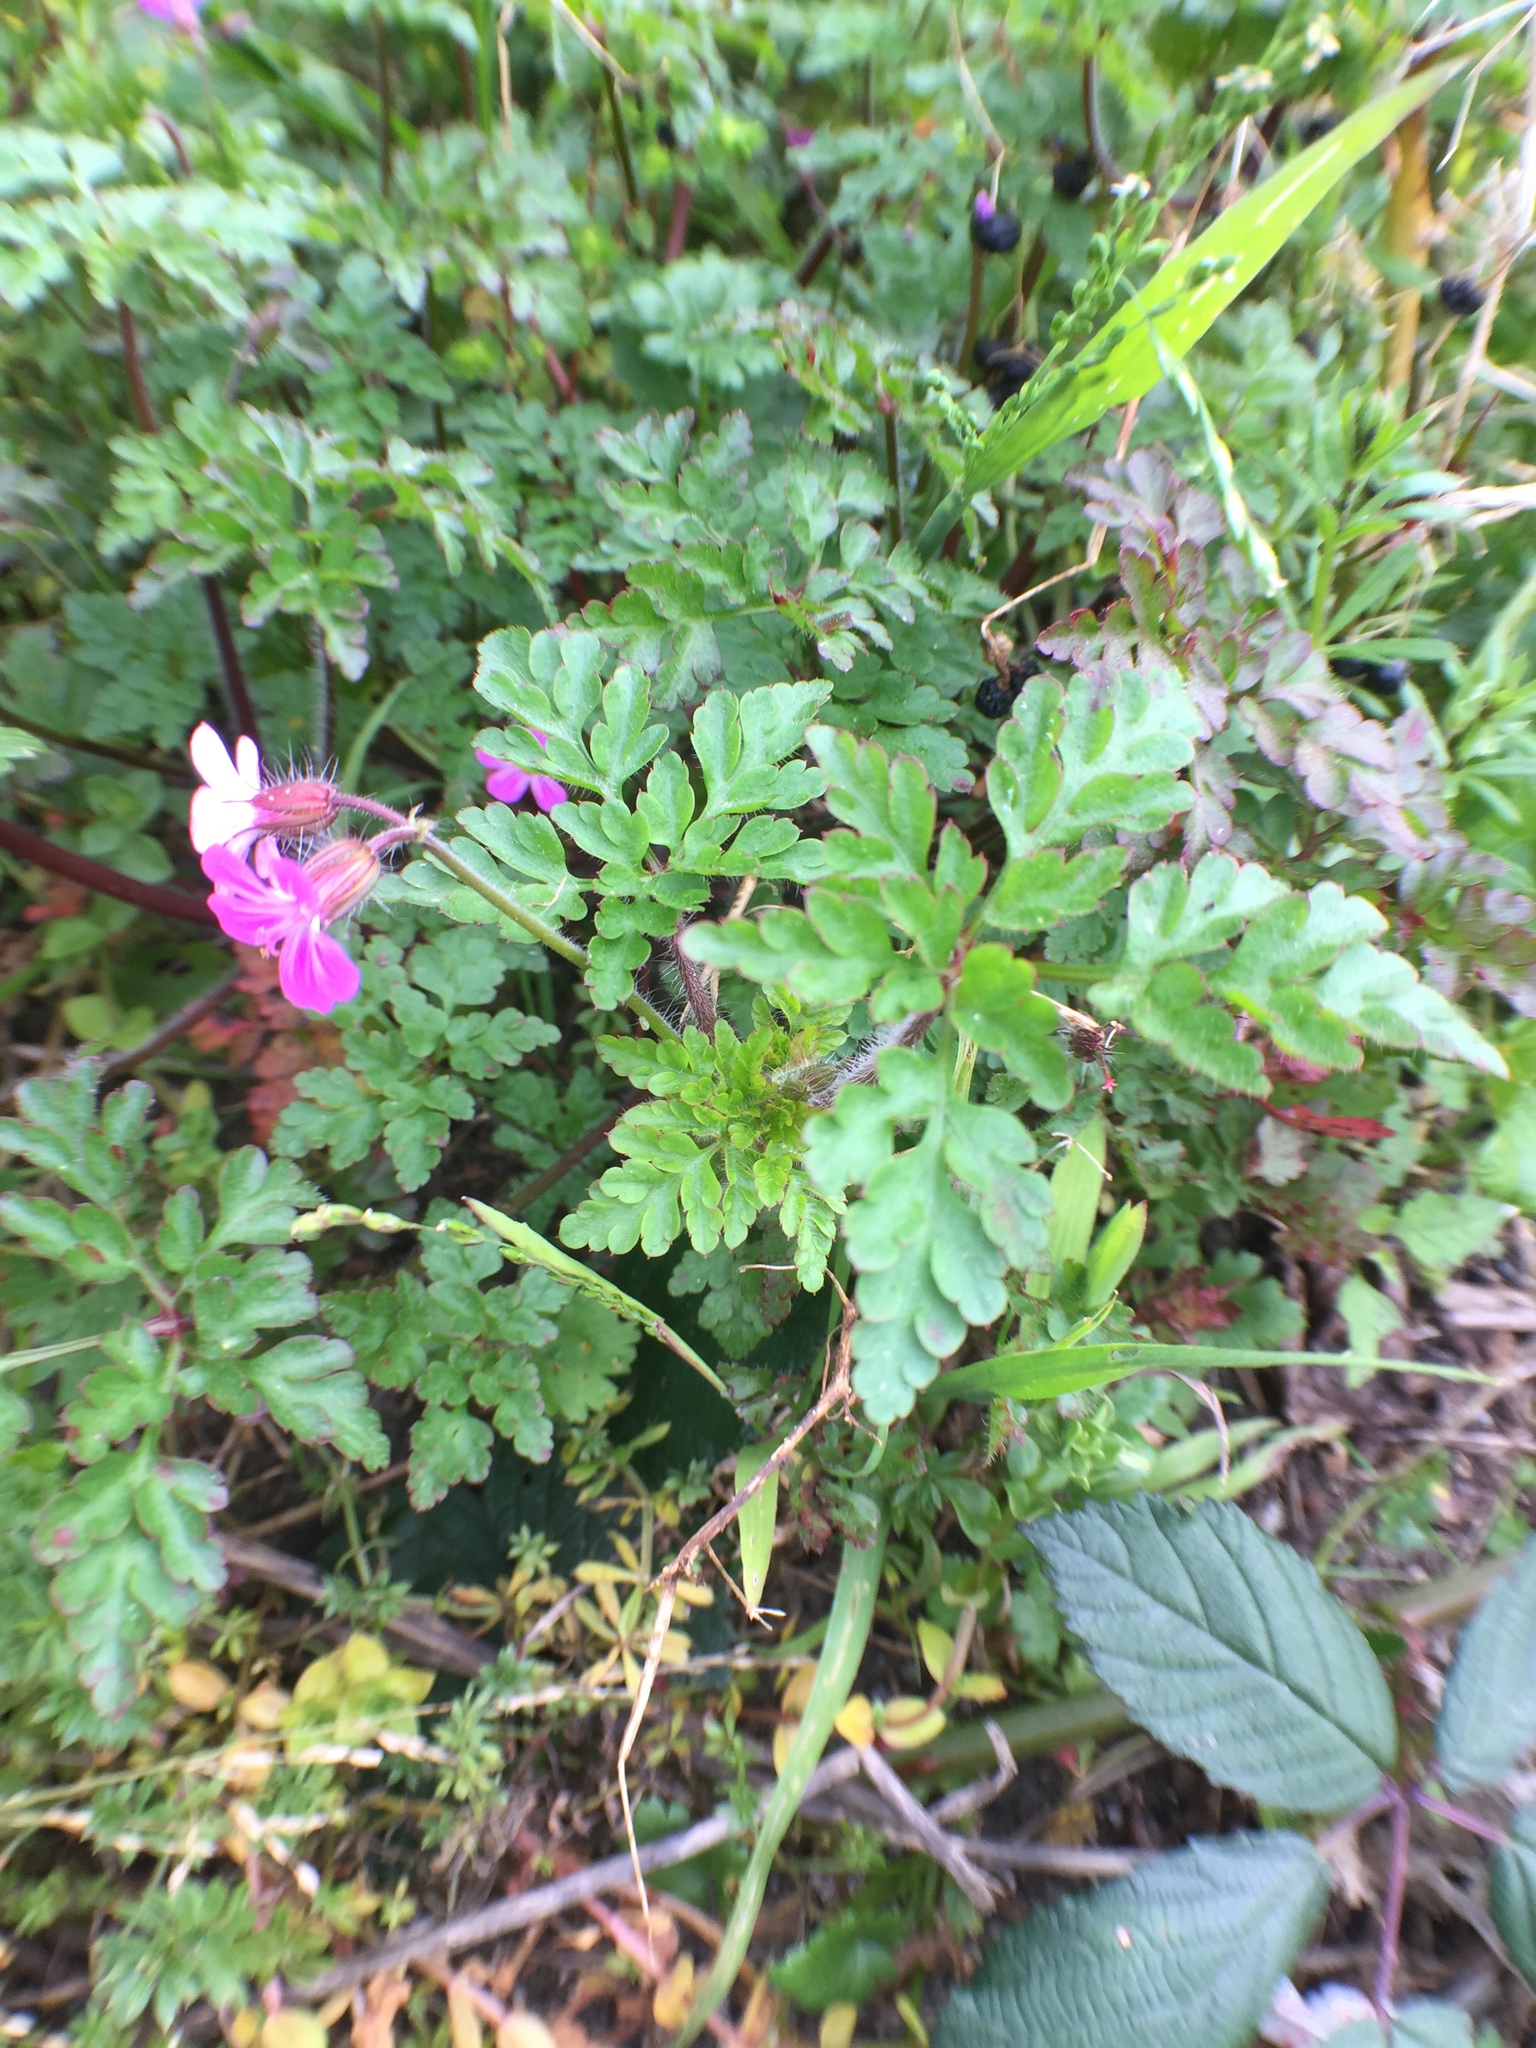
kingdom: Plantae
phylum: Tracheophyta
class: Magnoliopsida
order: Geraniales
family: Geraniaceae
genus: Geranium
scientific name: Geranium robertianum
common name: Herb-robert
